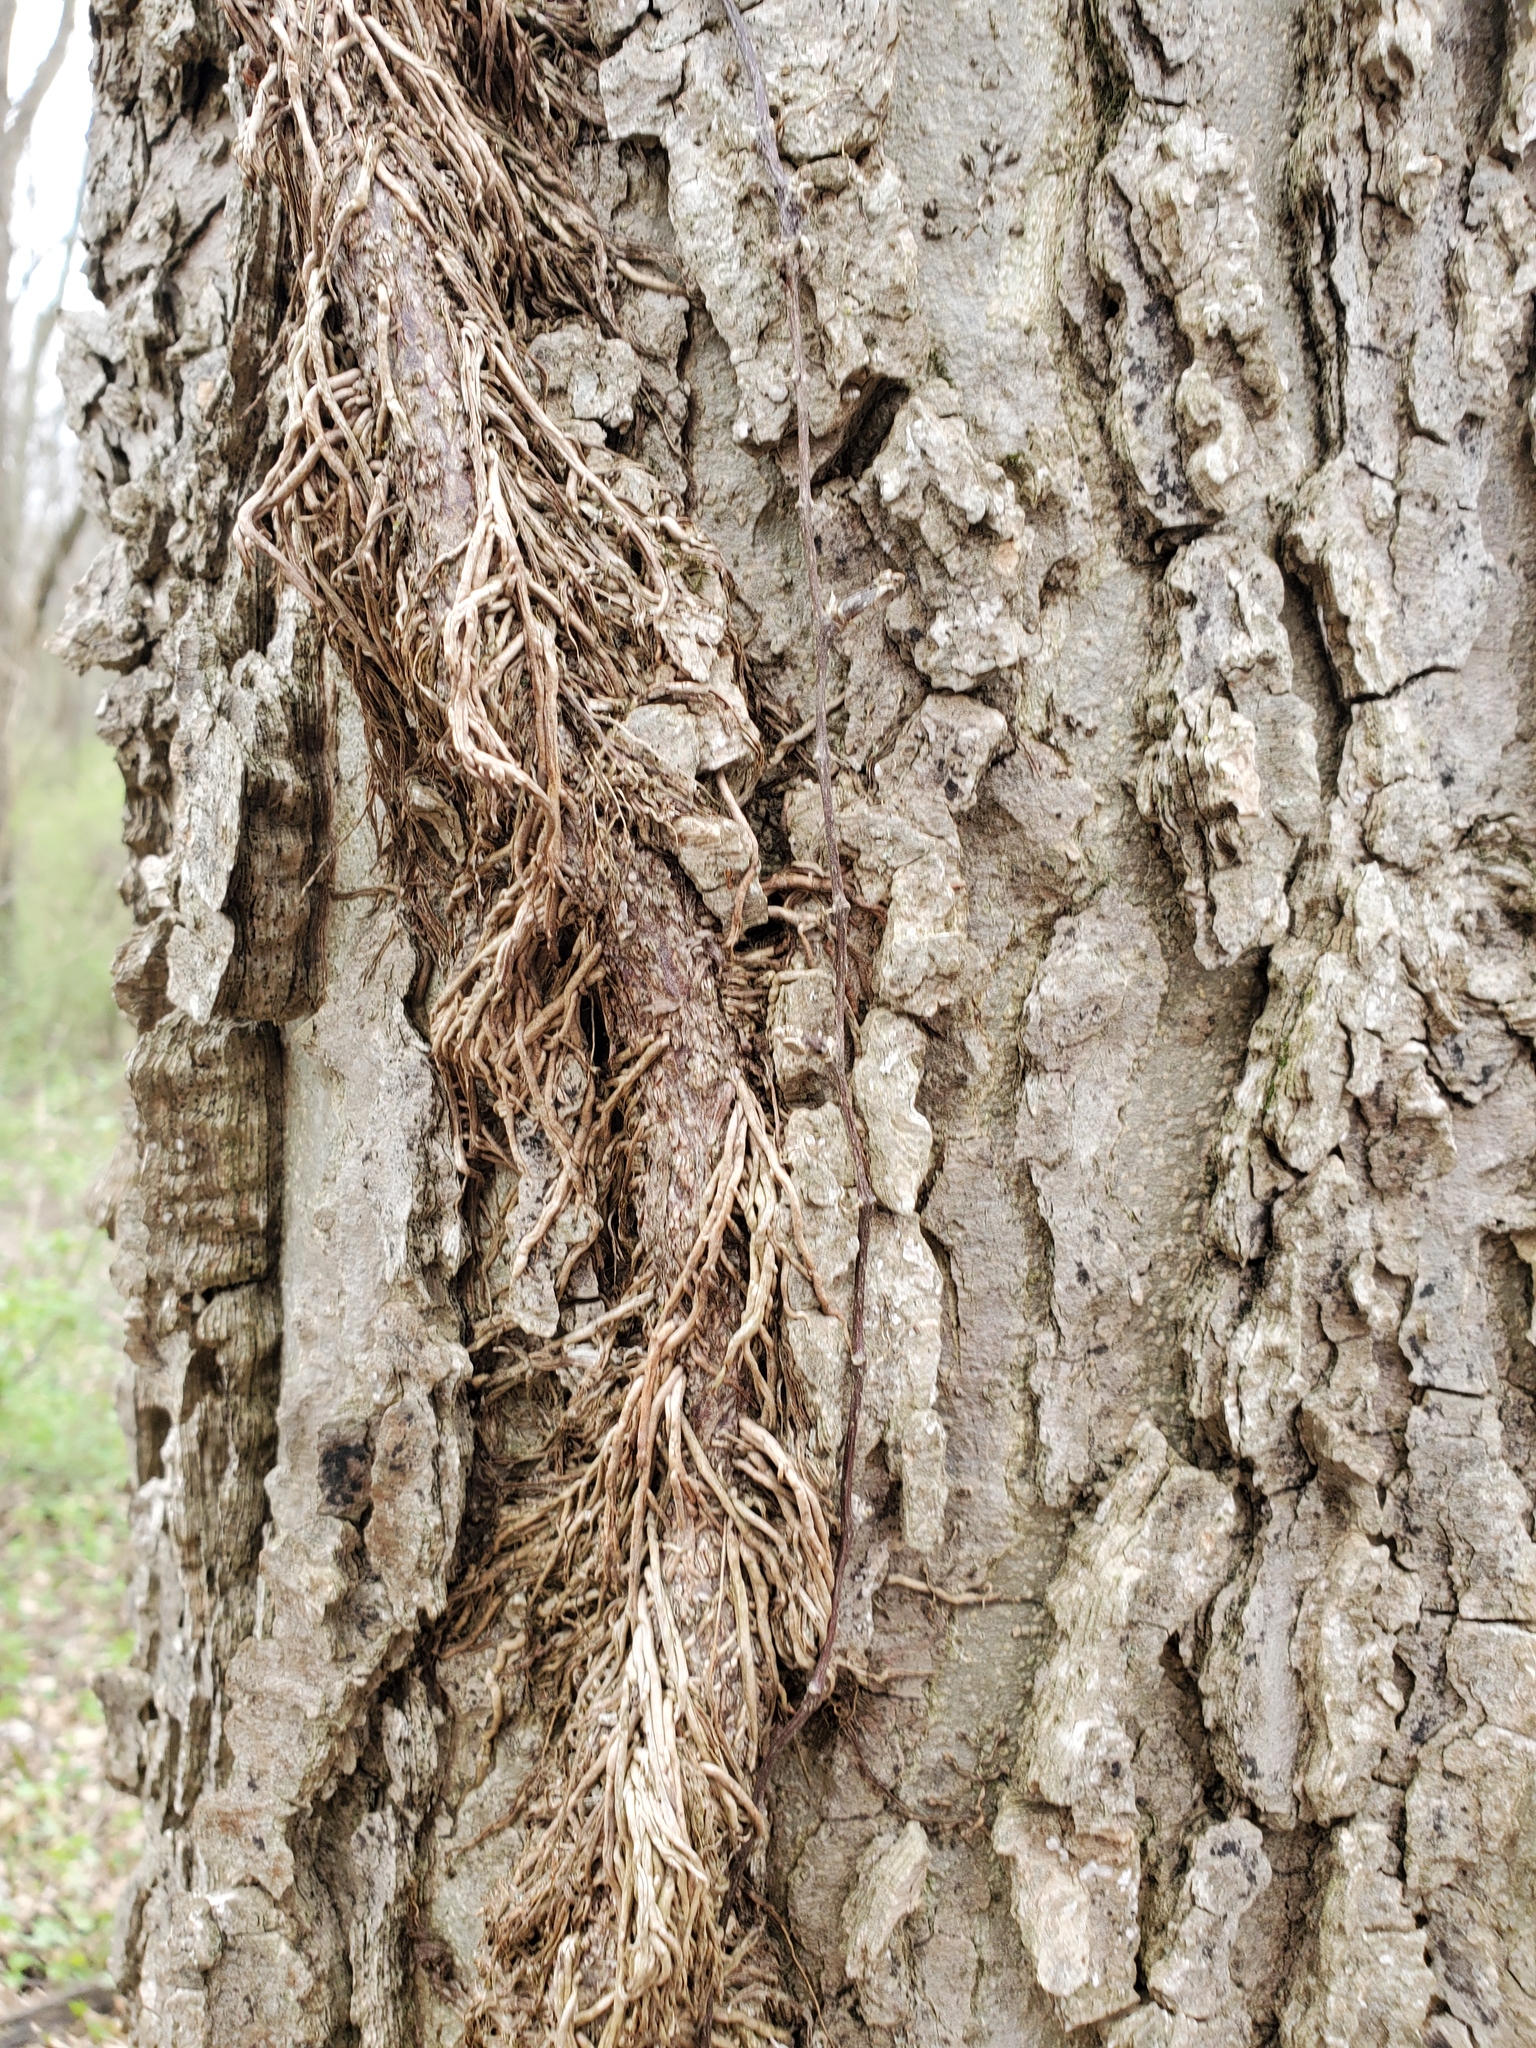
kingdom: Plantae
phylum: Tracheophyta
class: Magnoliopsida
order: Vitales
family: Vitaceae
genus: Parthenocissus
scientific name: Parthenocissus quinquefolia
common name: Virginia-creeper
